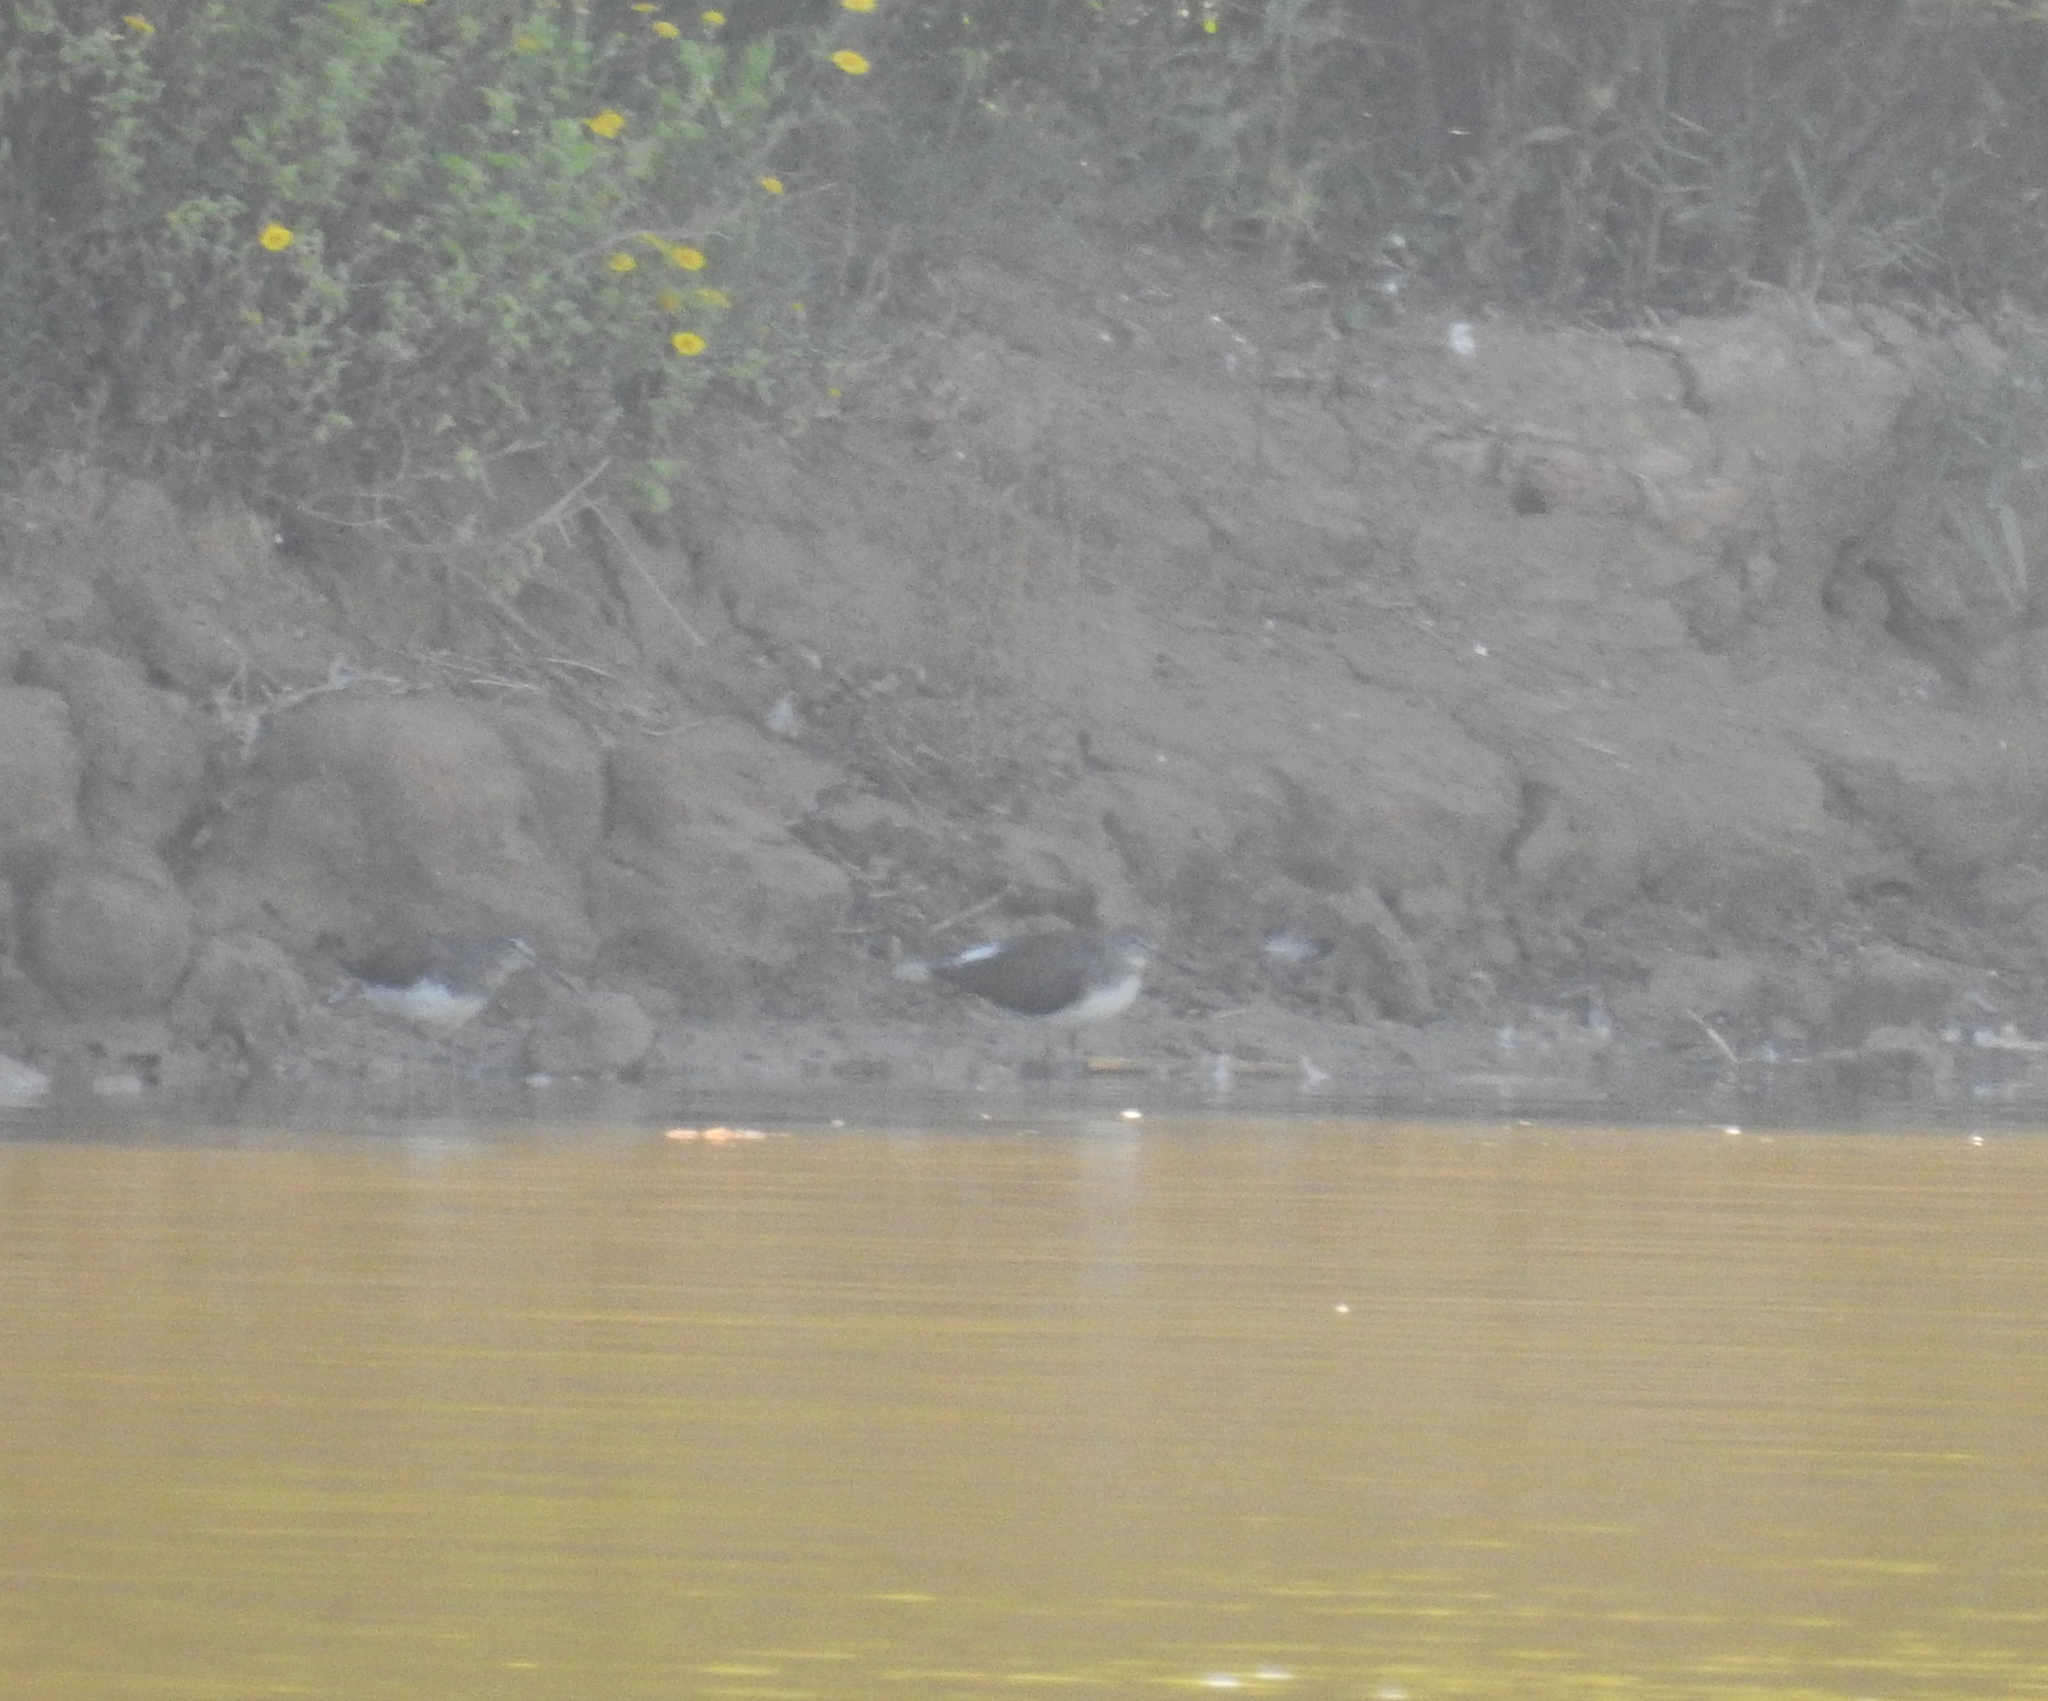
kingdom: Animalia
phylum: Chordata
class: Aves
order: Charadriiformes
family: Scolopacidae
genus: Actitis
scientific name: Actitis hypoleucos
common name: Common sandpiper
